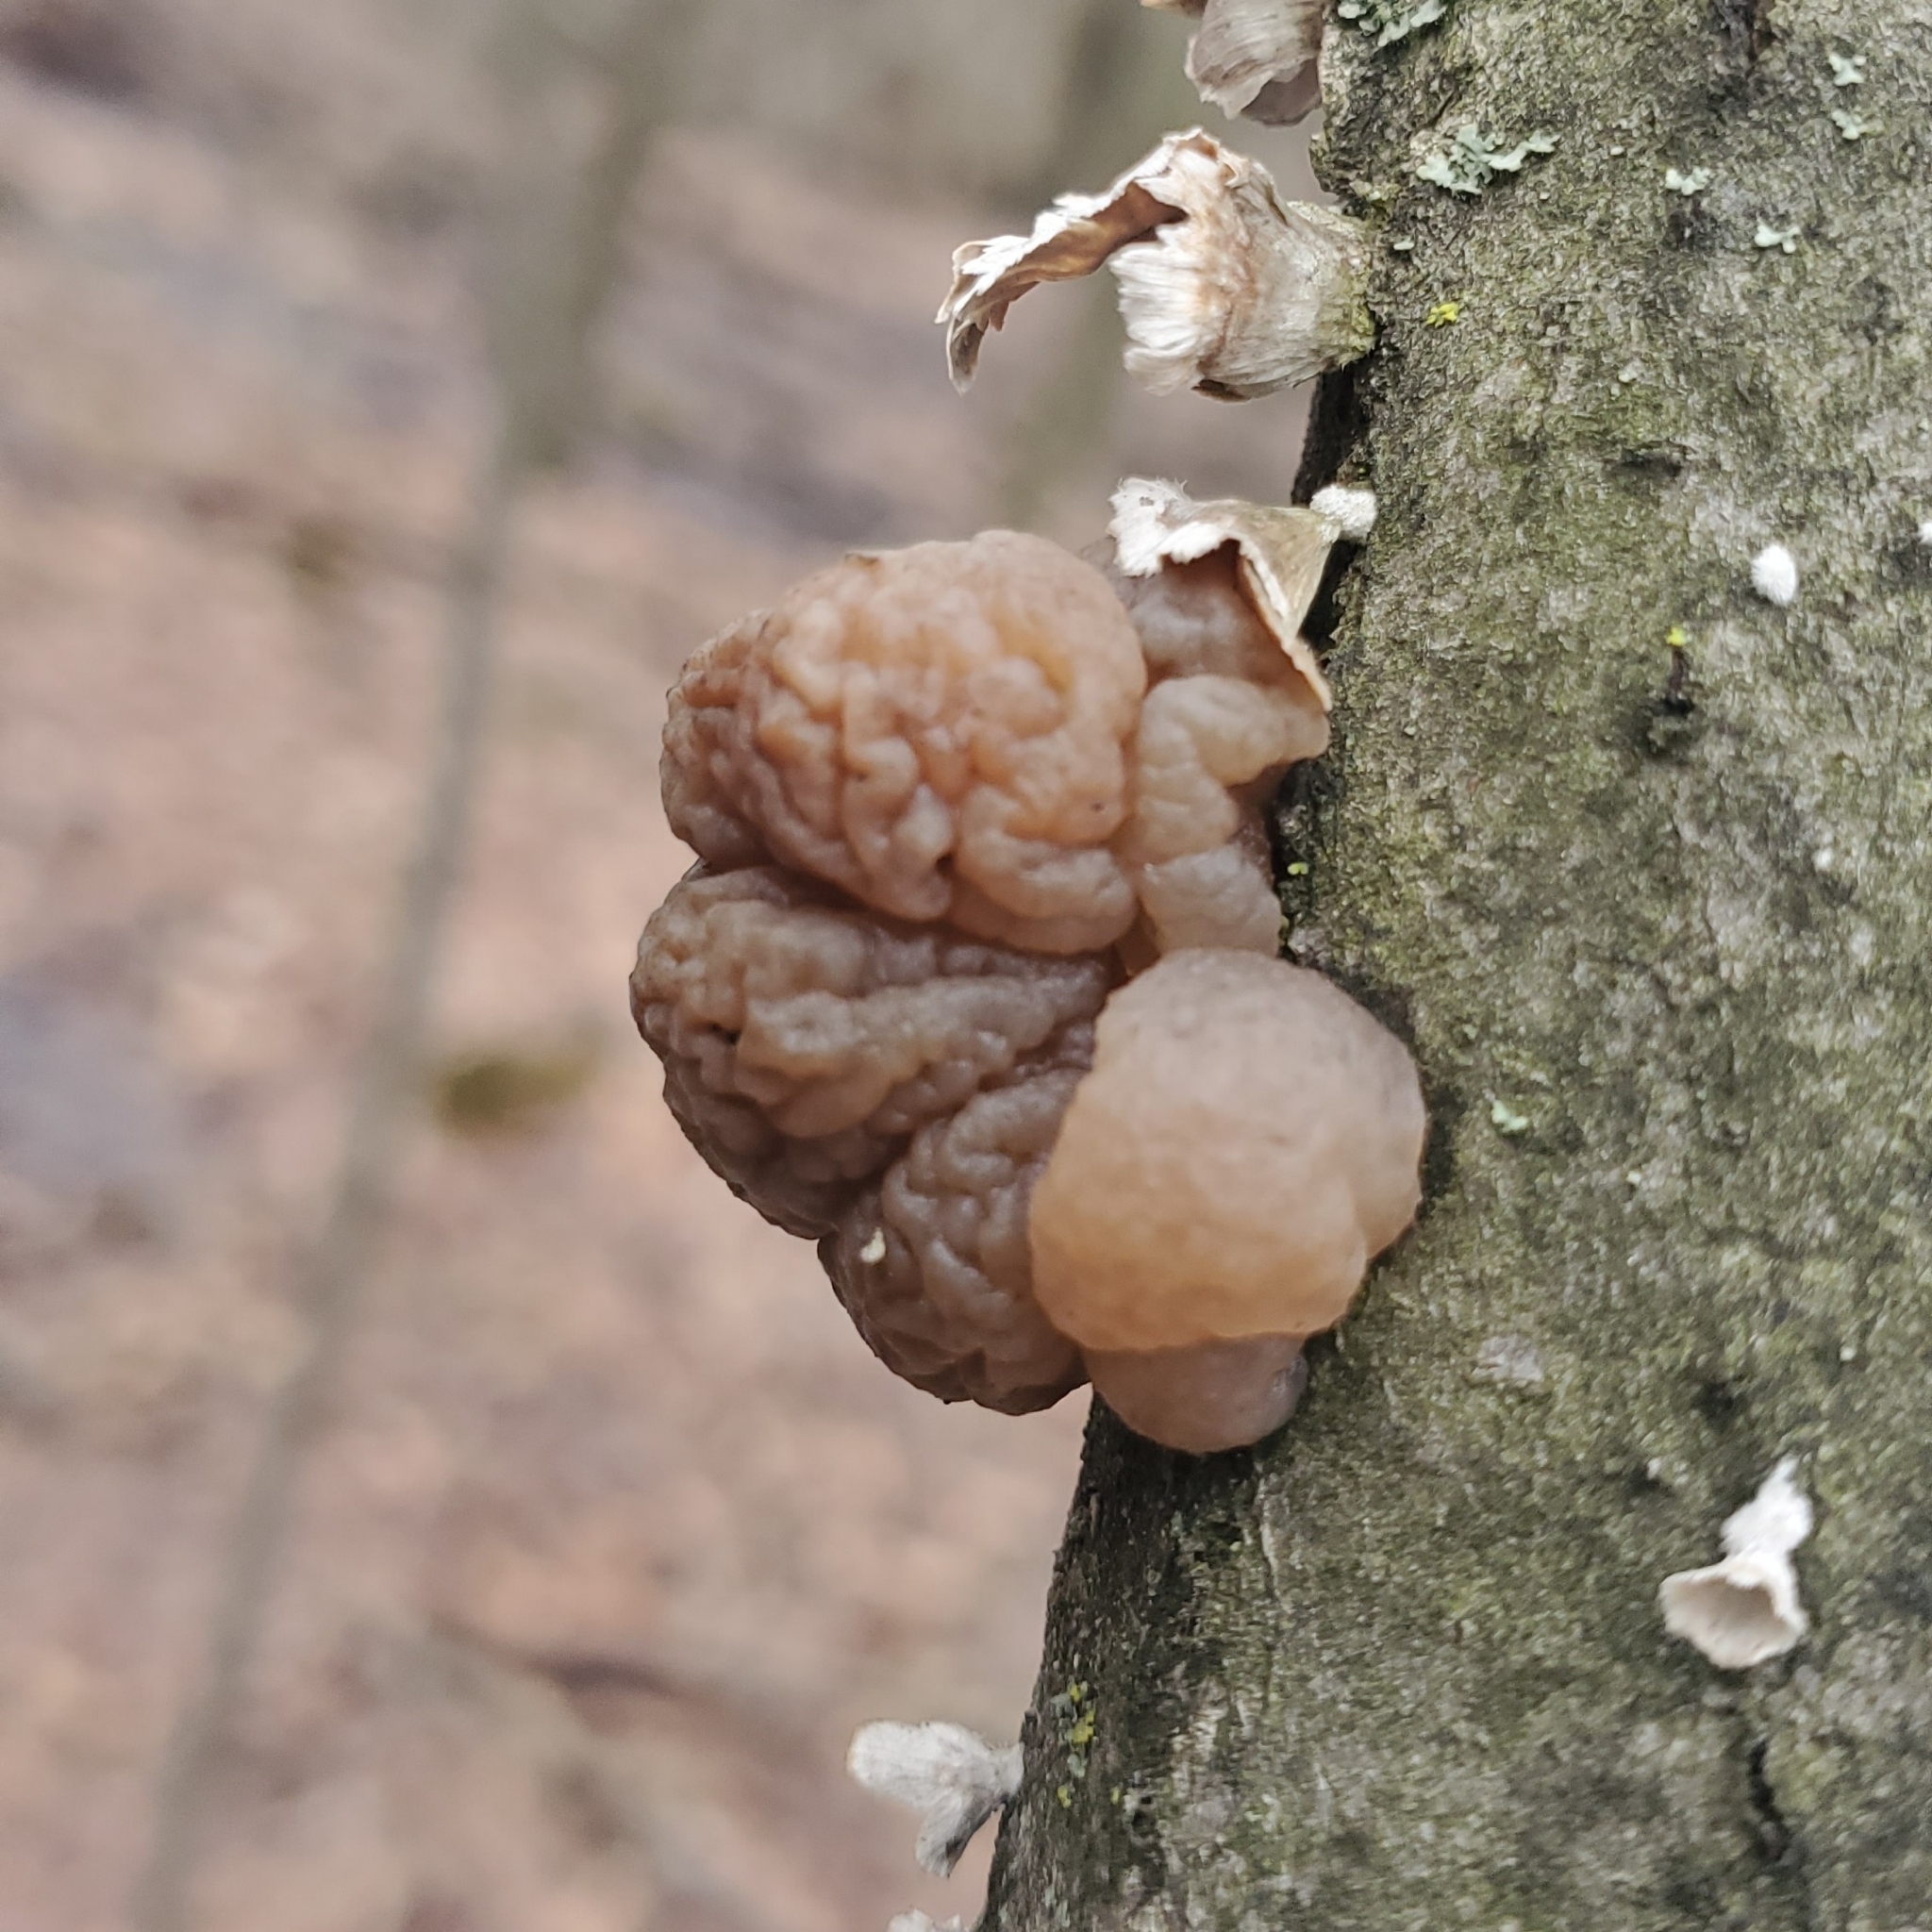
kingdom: Fungi
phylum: Basidiomycota
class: Tremellomycetes
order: Tremellales
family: Naemateliaceae
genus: Naematelia
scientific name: Naematelia encephala
